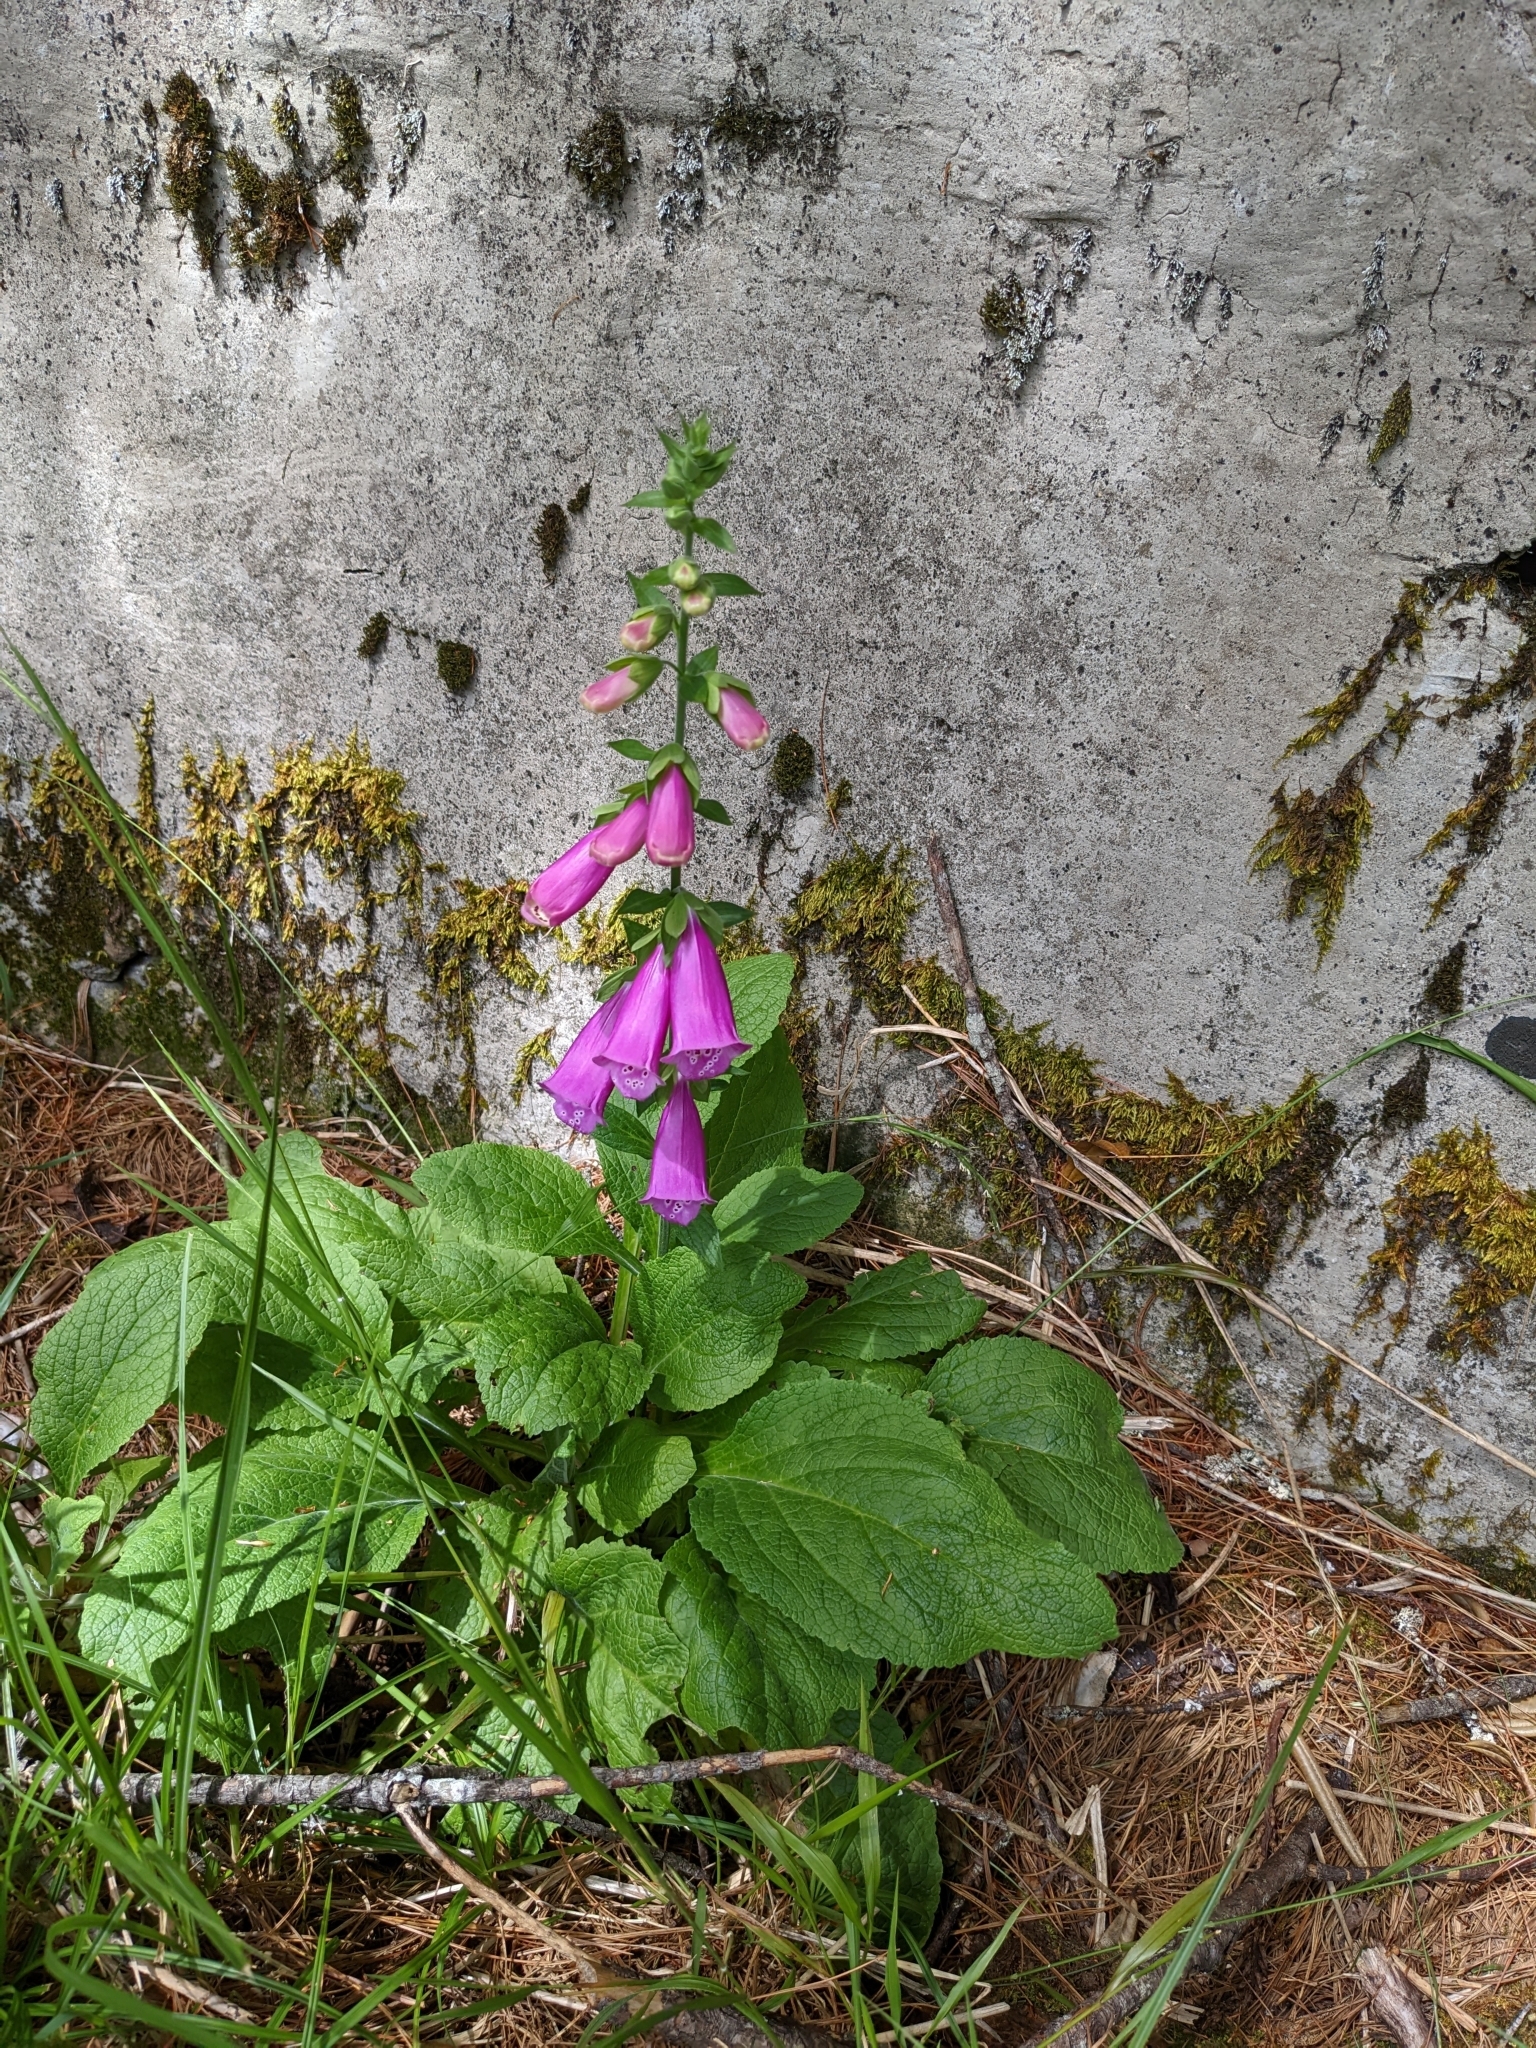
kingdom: Plantae
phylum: Tracheophyta
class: Magnoliopsida
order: Lamiales
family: Plantaginaceae
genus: Digitalis
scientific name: Digitalis purpurea
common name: Foxglove
